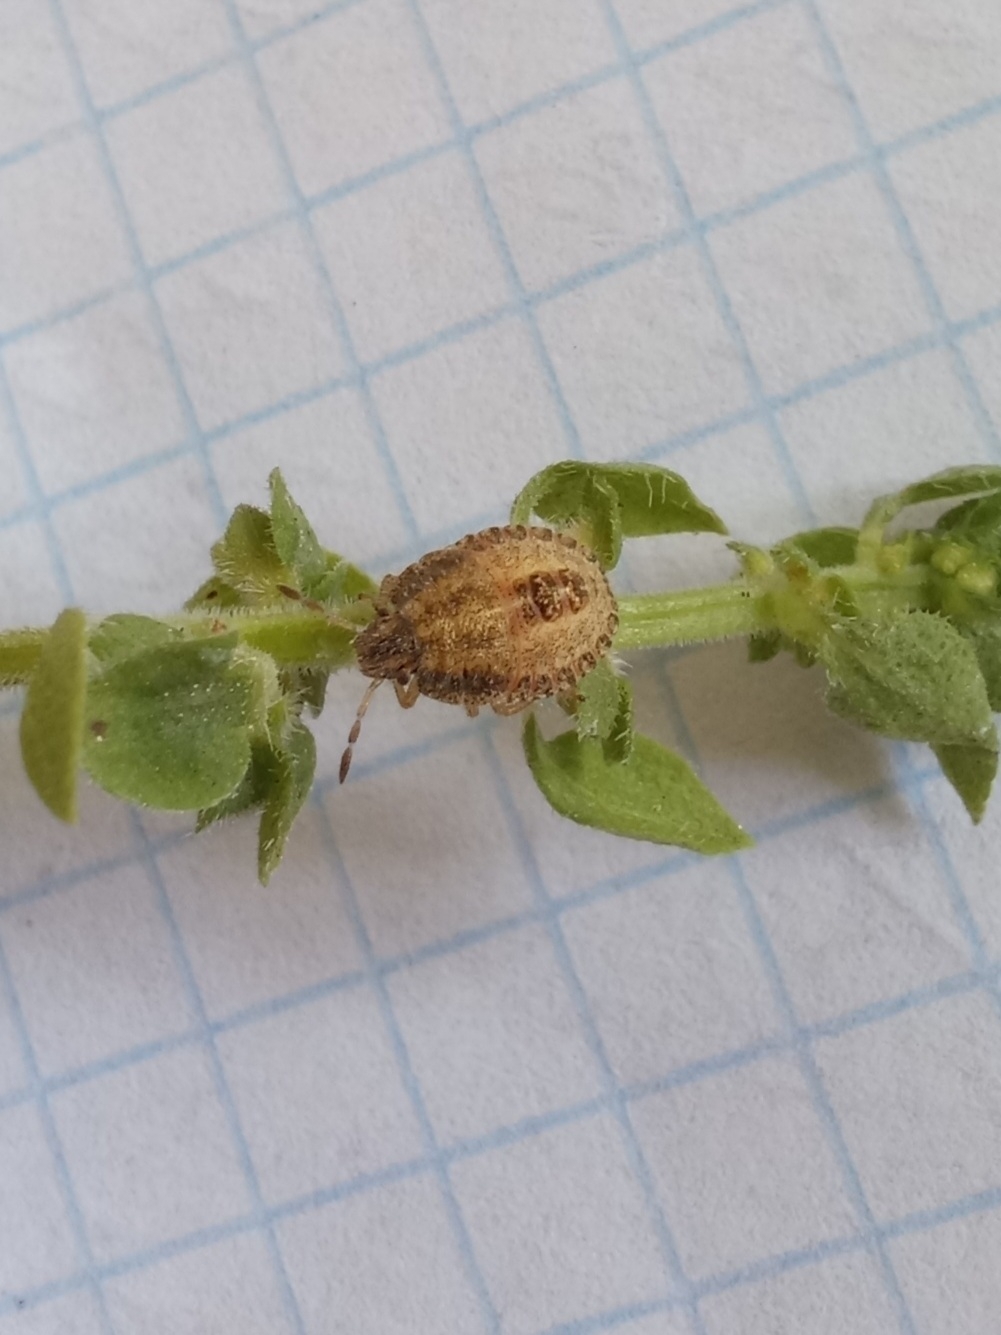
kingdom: Animalia
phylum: Arthropoda
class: Insecta
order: Hemiptera
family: Pentatomidae
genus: Dolycoris
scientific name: Dolycoris baccarum
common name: Sloe bug
